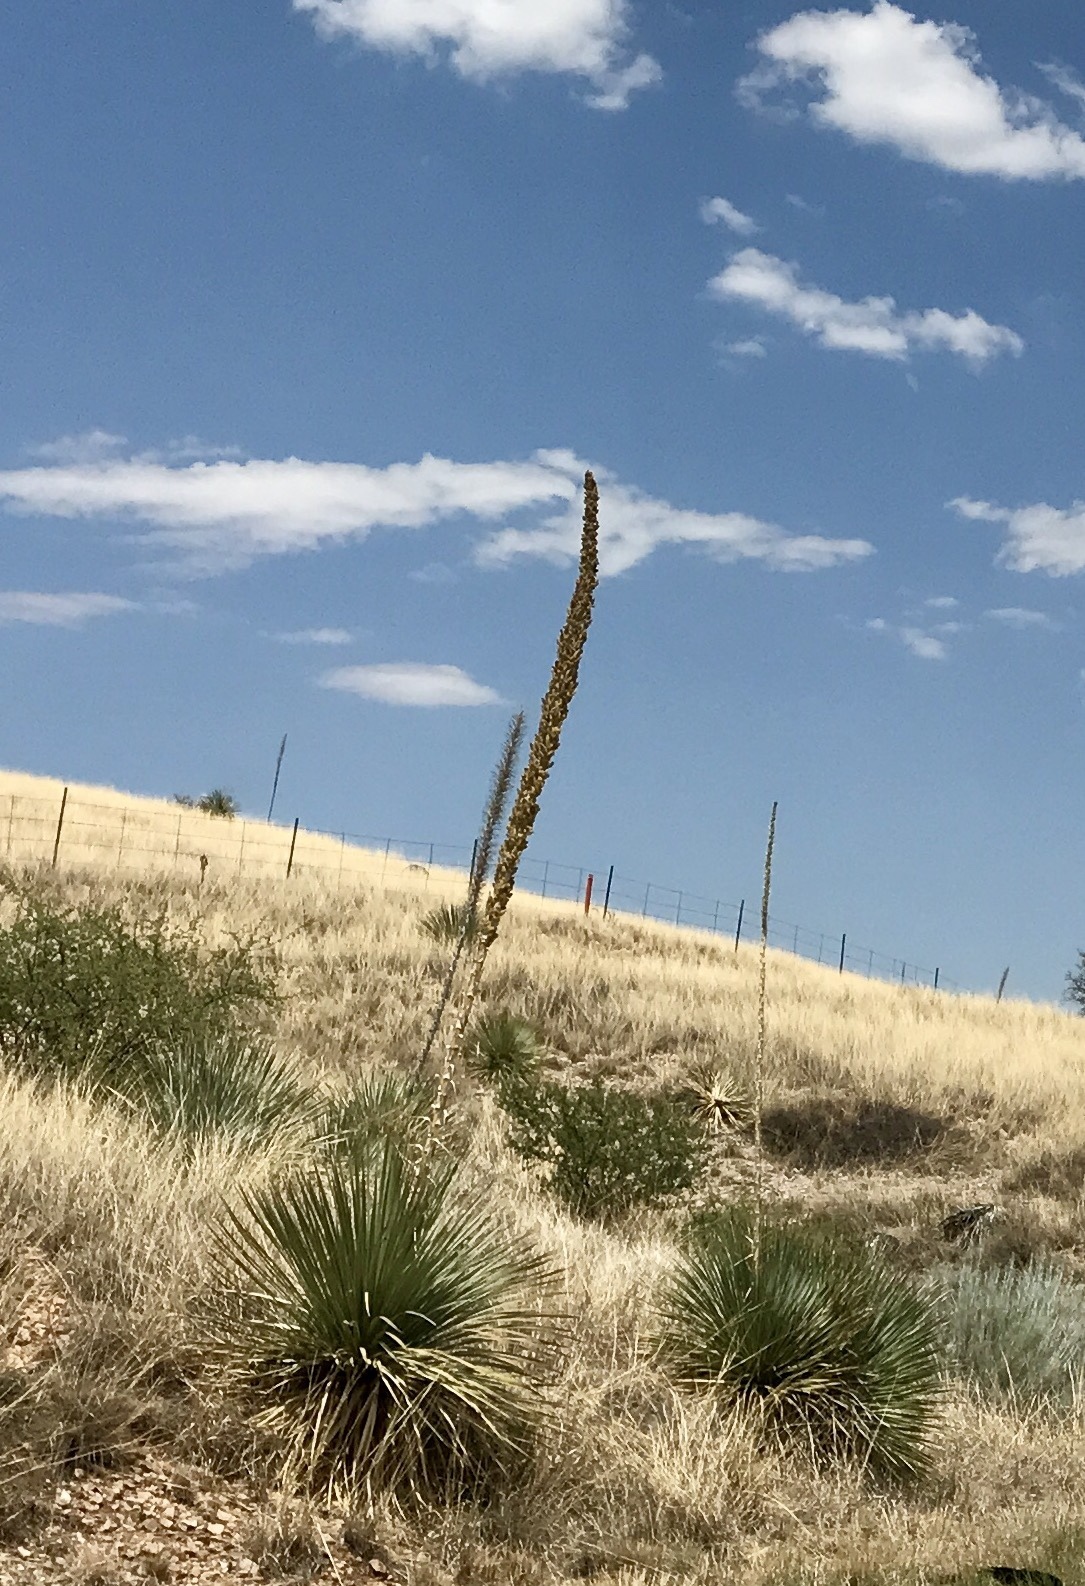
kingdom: Plantae
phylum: Tracheophyta
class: Liliopsida
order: Asparagales
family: Asparagaceae
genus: Dasylirion
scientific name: Dasylirion wheeleri
